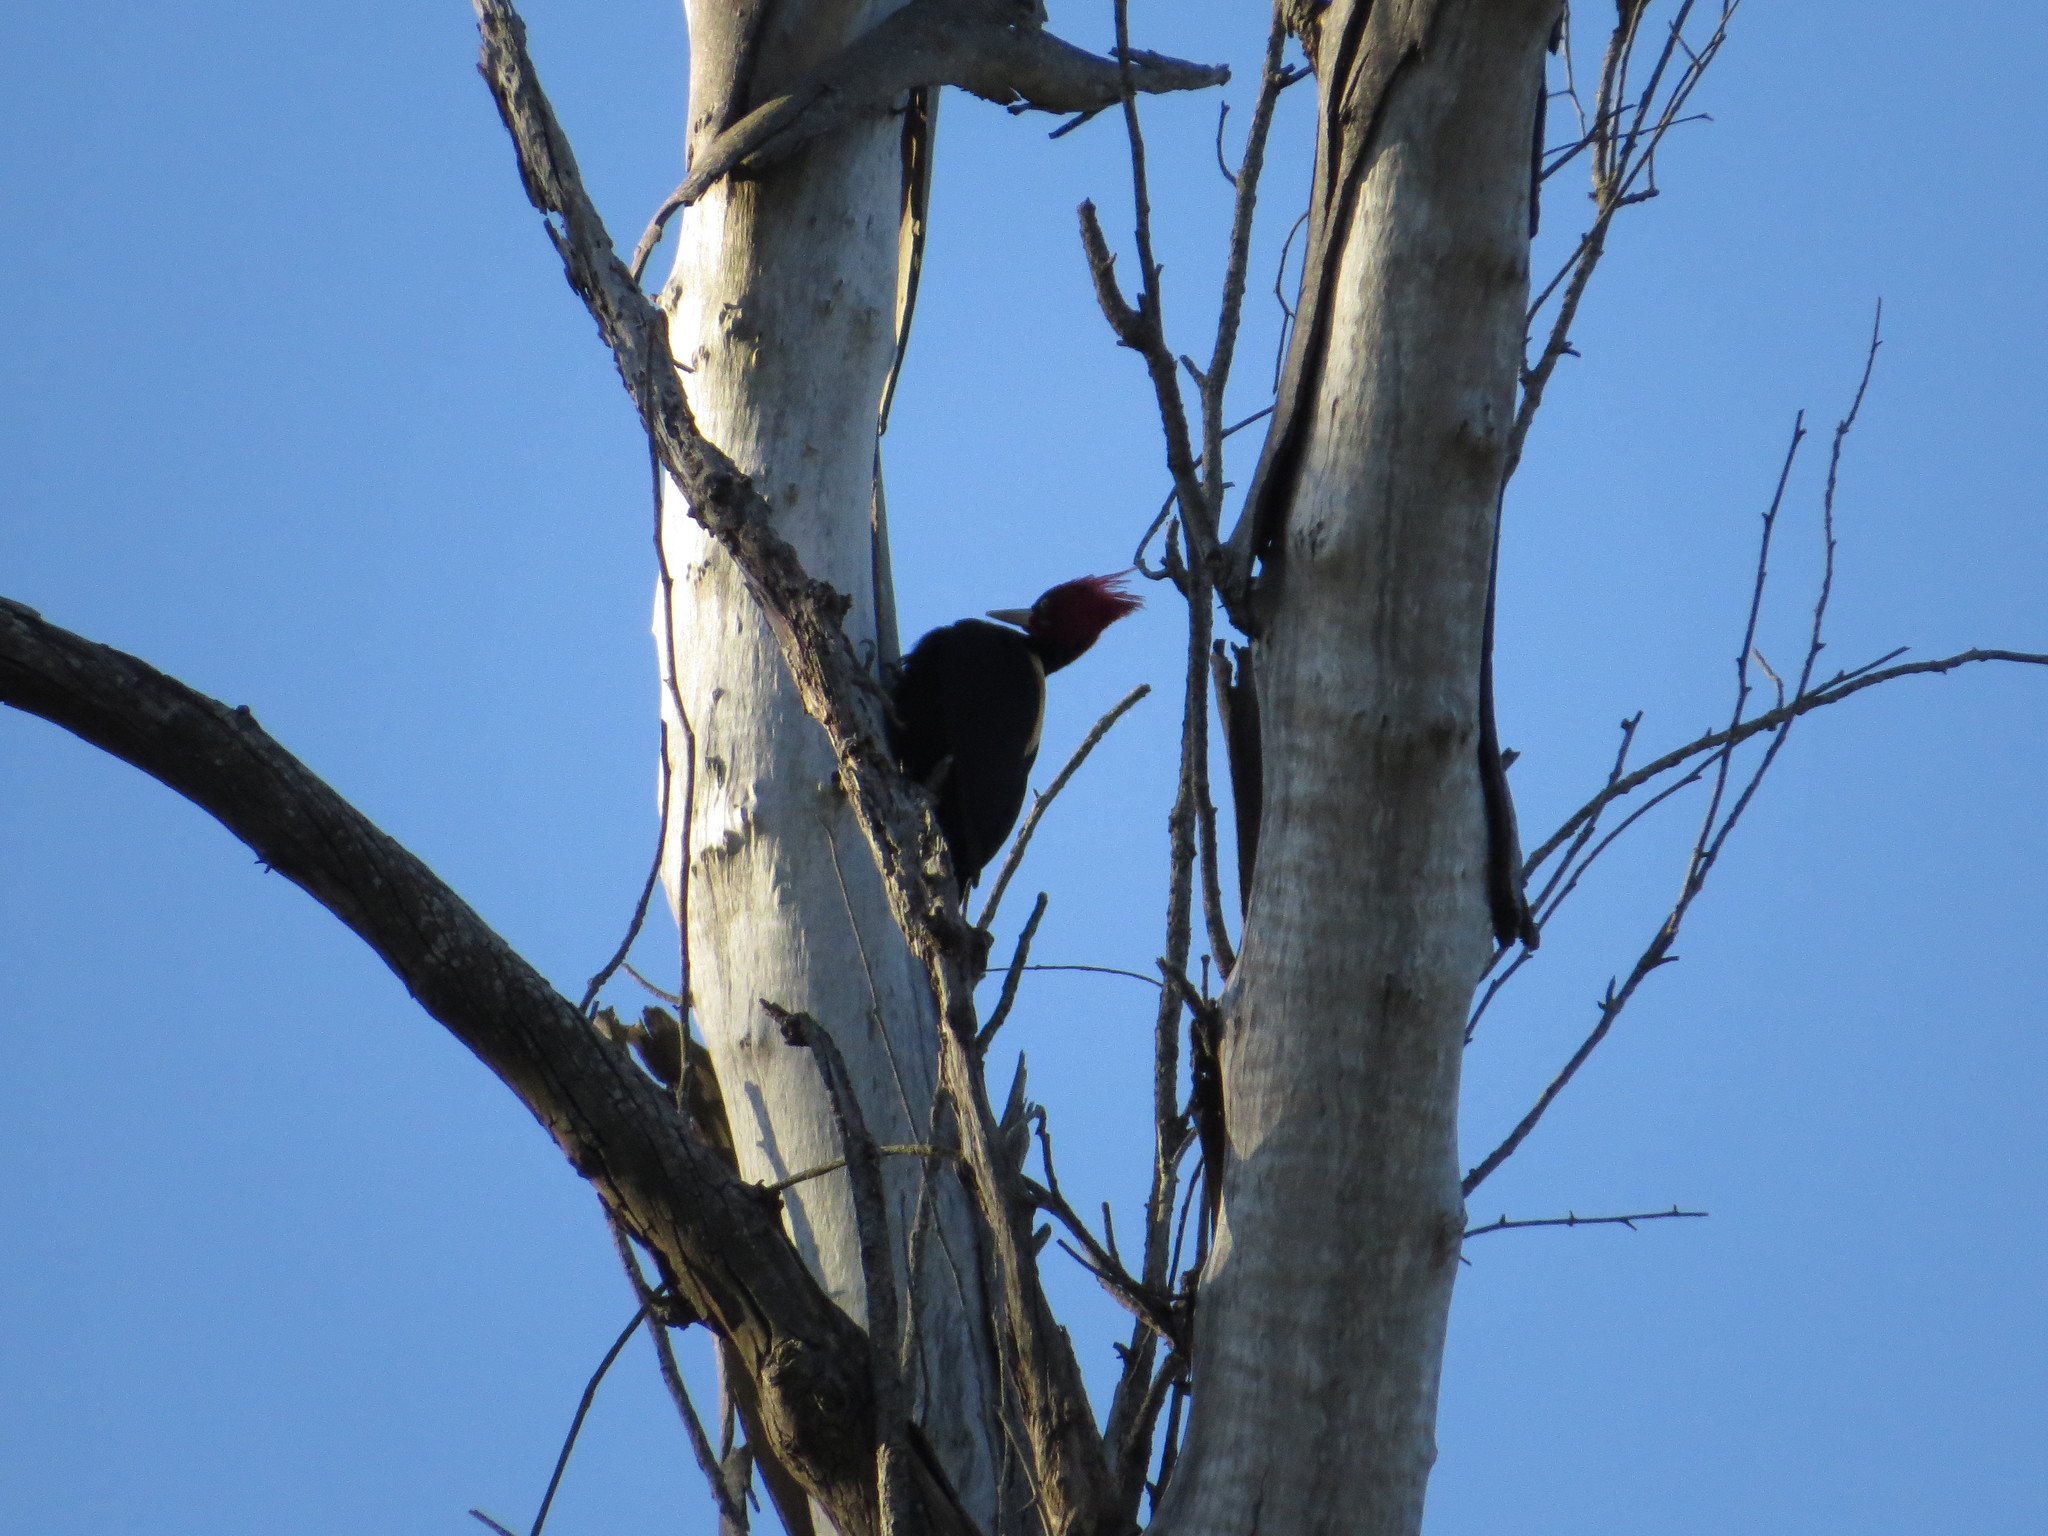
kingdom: Animalia
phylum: Chordata
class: Aves
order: Piciformes
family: Picidae
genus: Campephilus
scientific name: Campephilus leucopogon
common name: Cream-backed woodpecker
